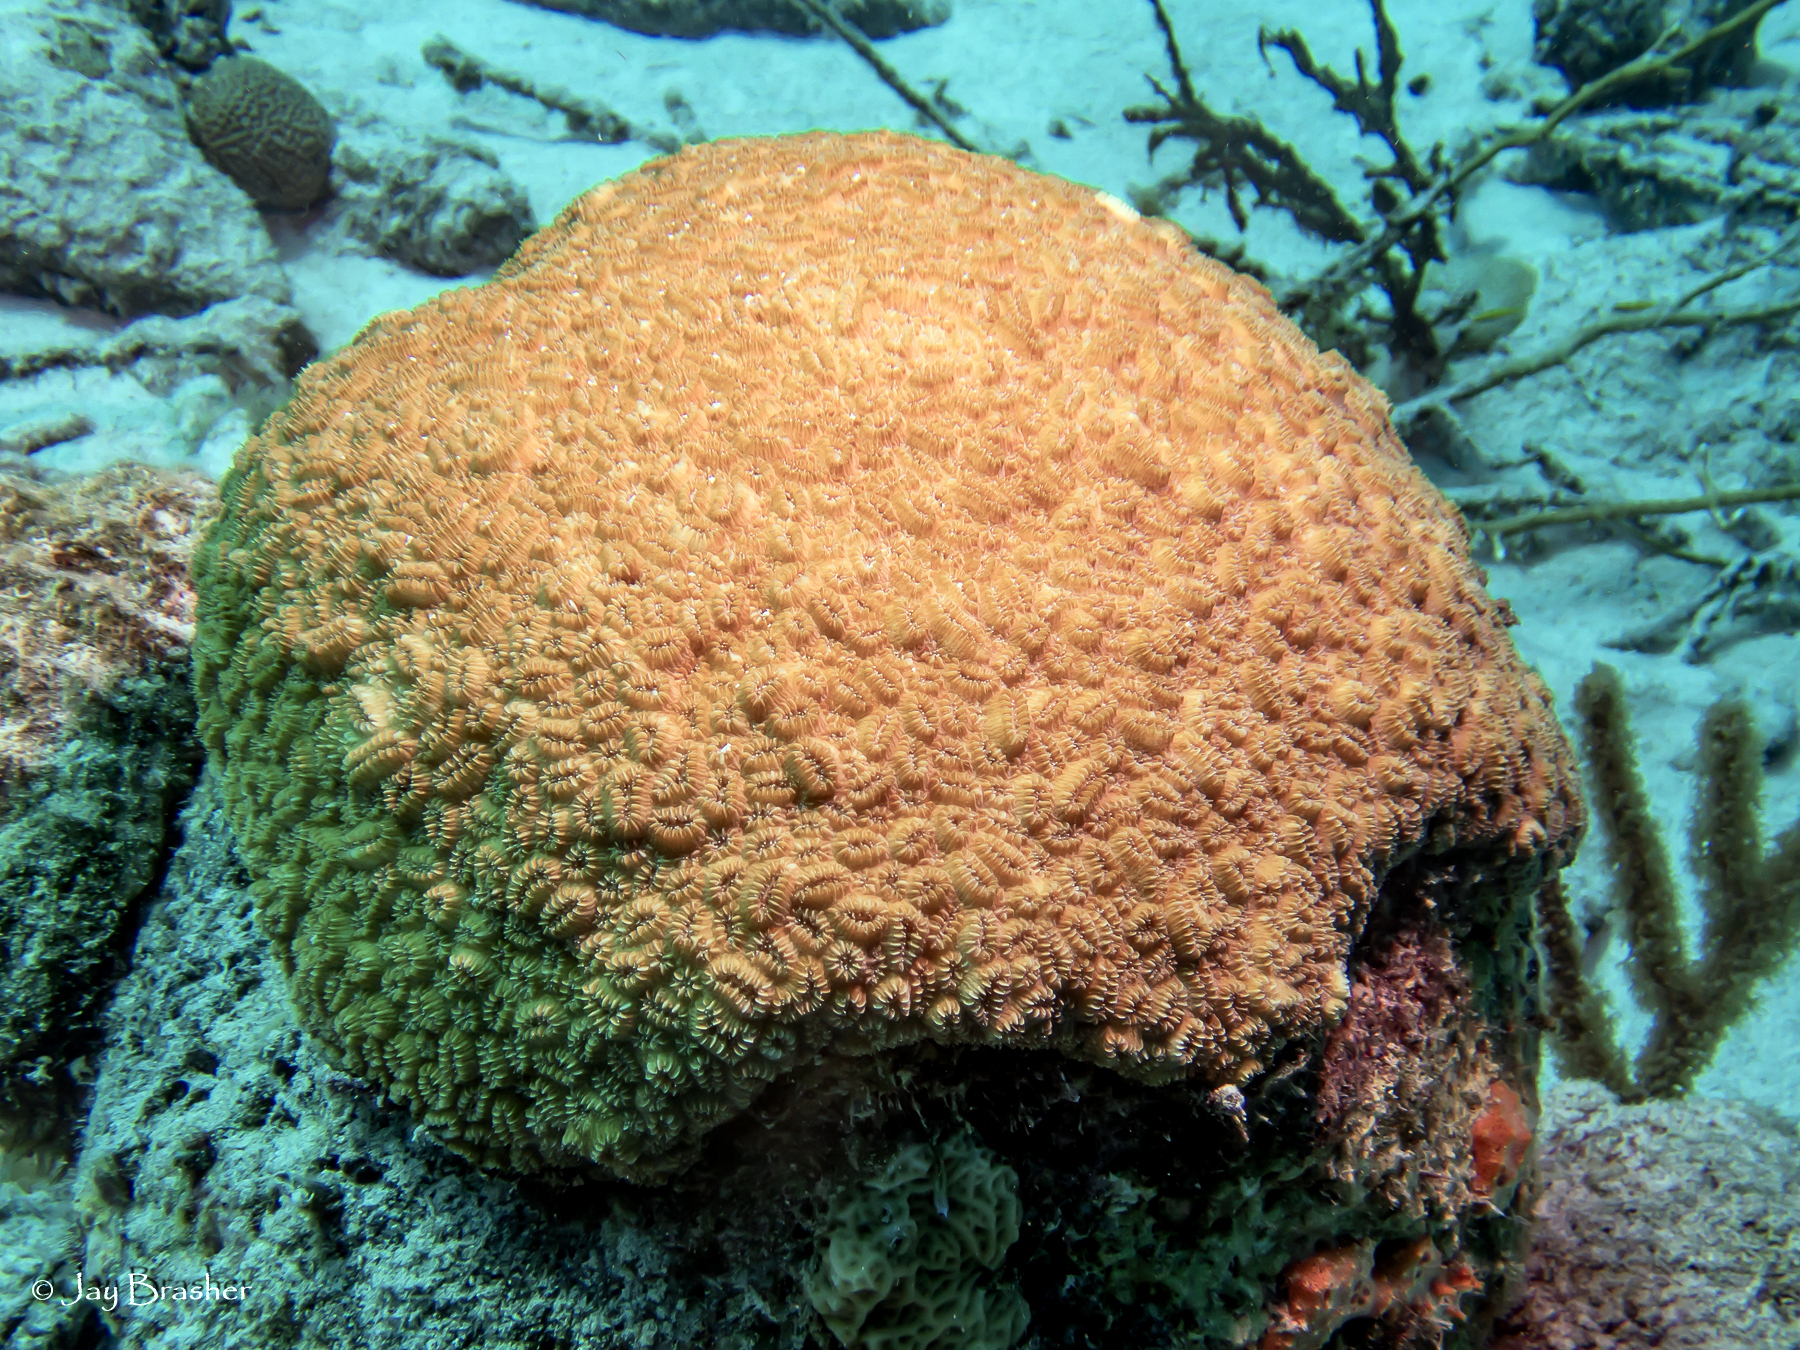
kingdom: Animalia
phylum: Cnidaria
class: Anthozoa
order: Scleractinia
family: Meandrinidae
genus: Dichocoenia
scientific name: Dichocoenia stokesii
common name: Pineapple coral
